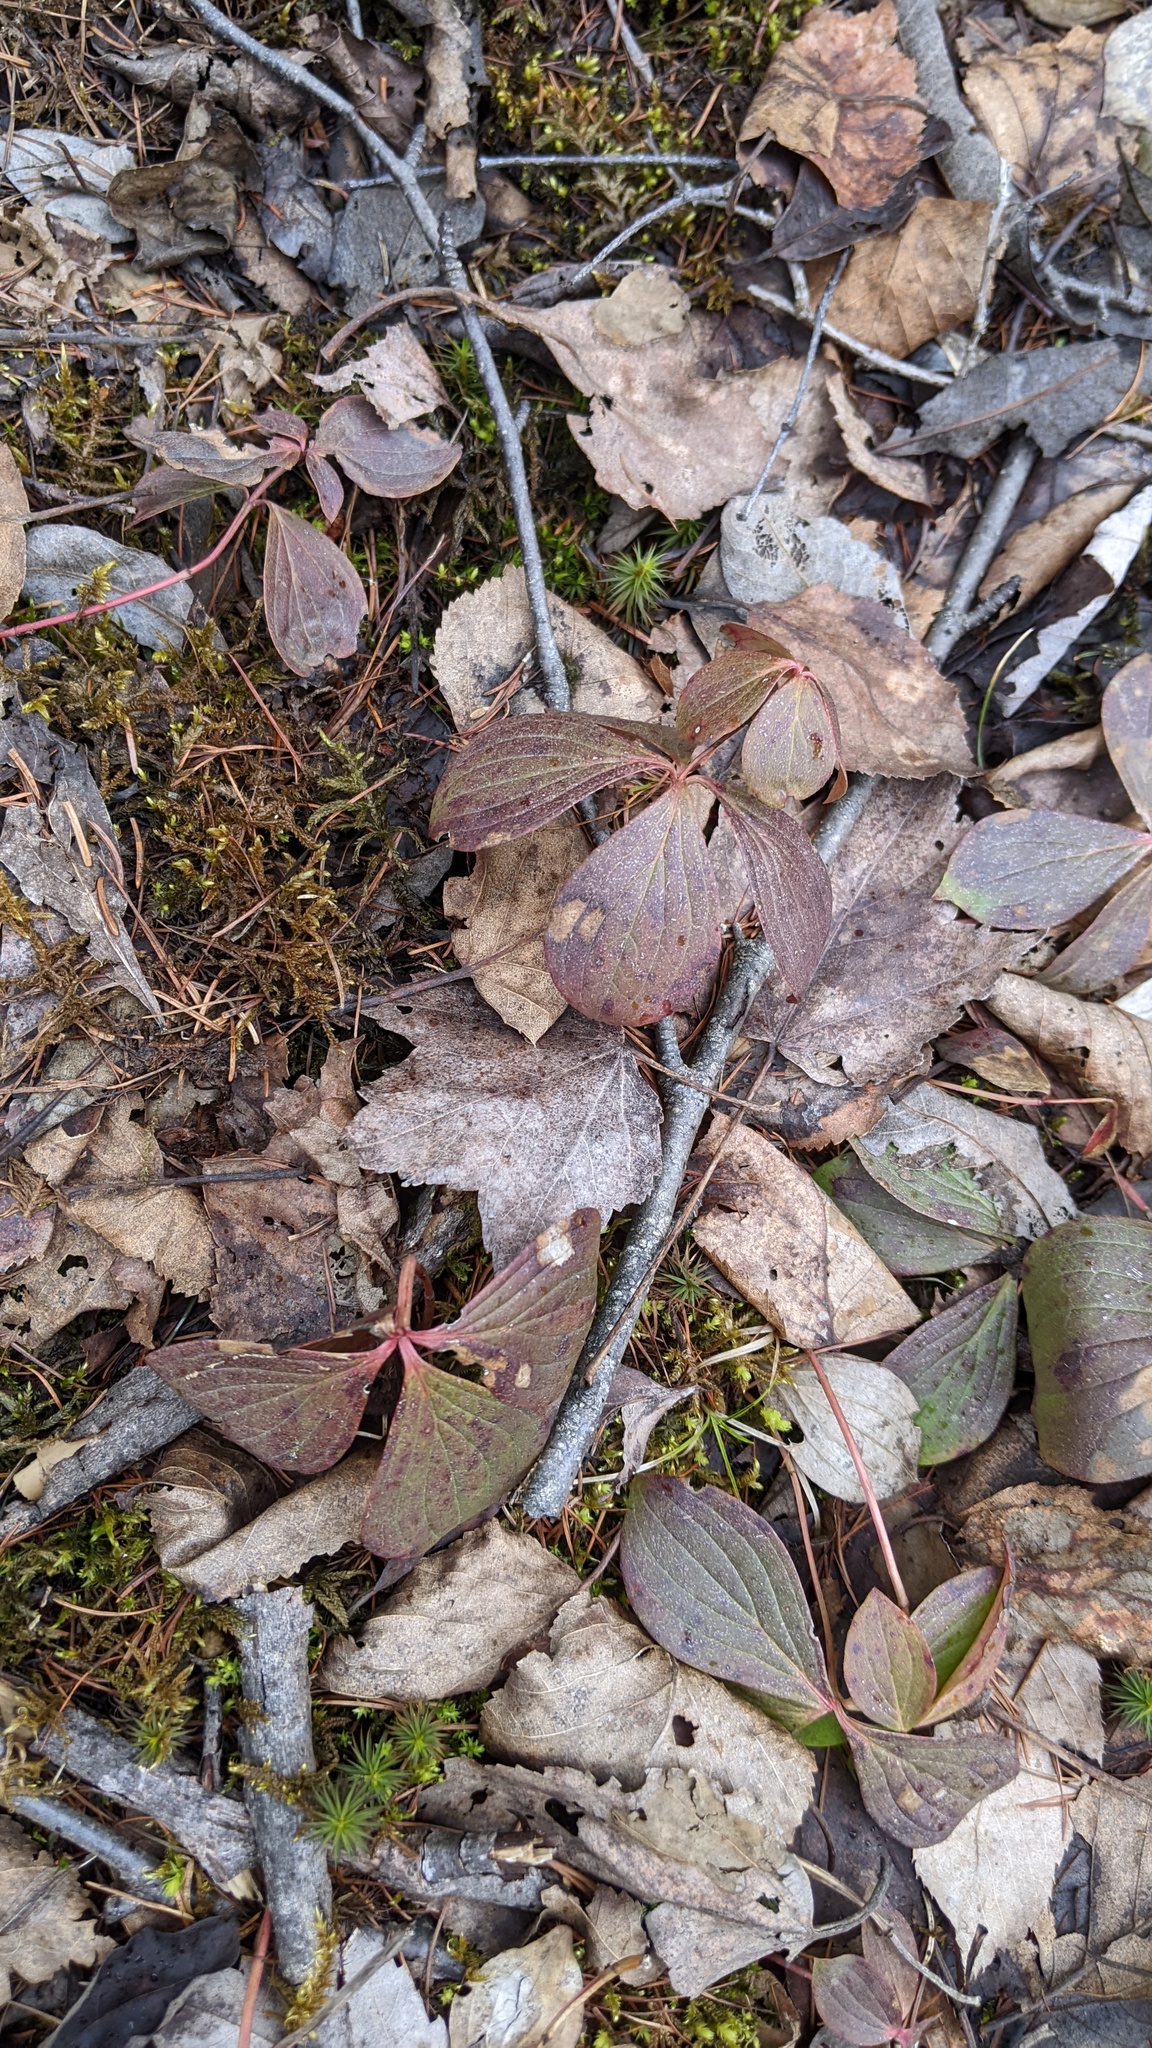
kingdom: Plantae
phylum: Tracheophyta
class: Magnoliopsida
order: Cornales
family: Cornaceae
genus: Cornus
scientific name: Cornus canadensis
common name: Creeping dogwood
